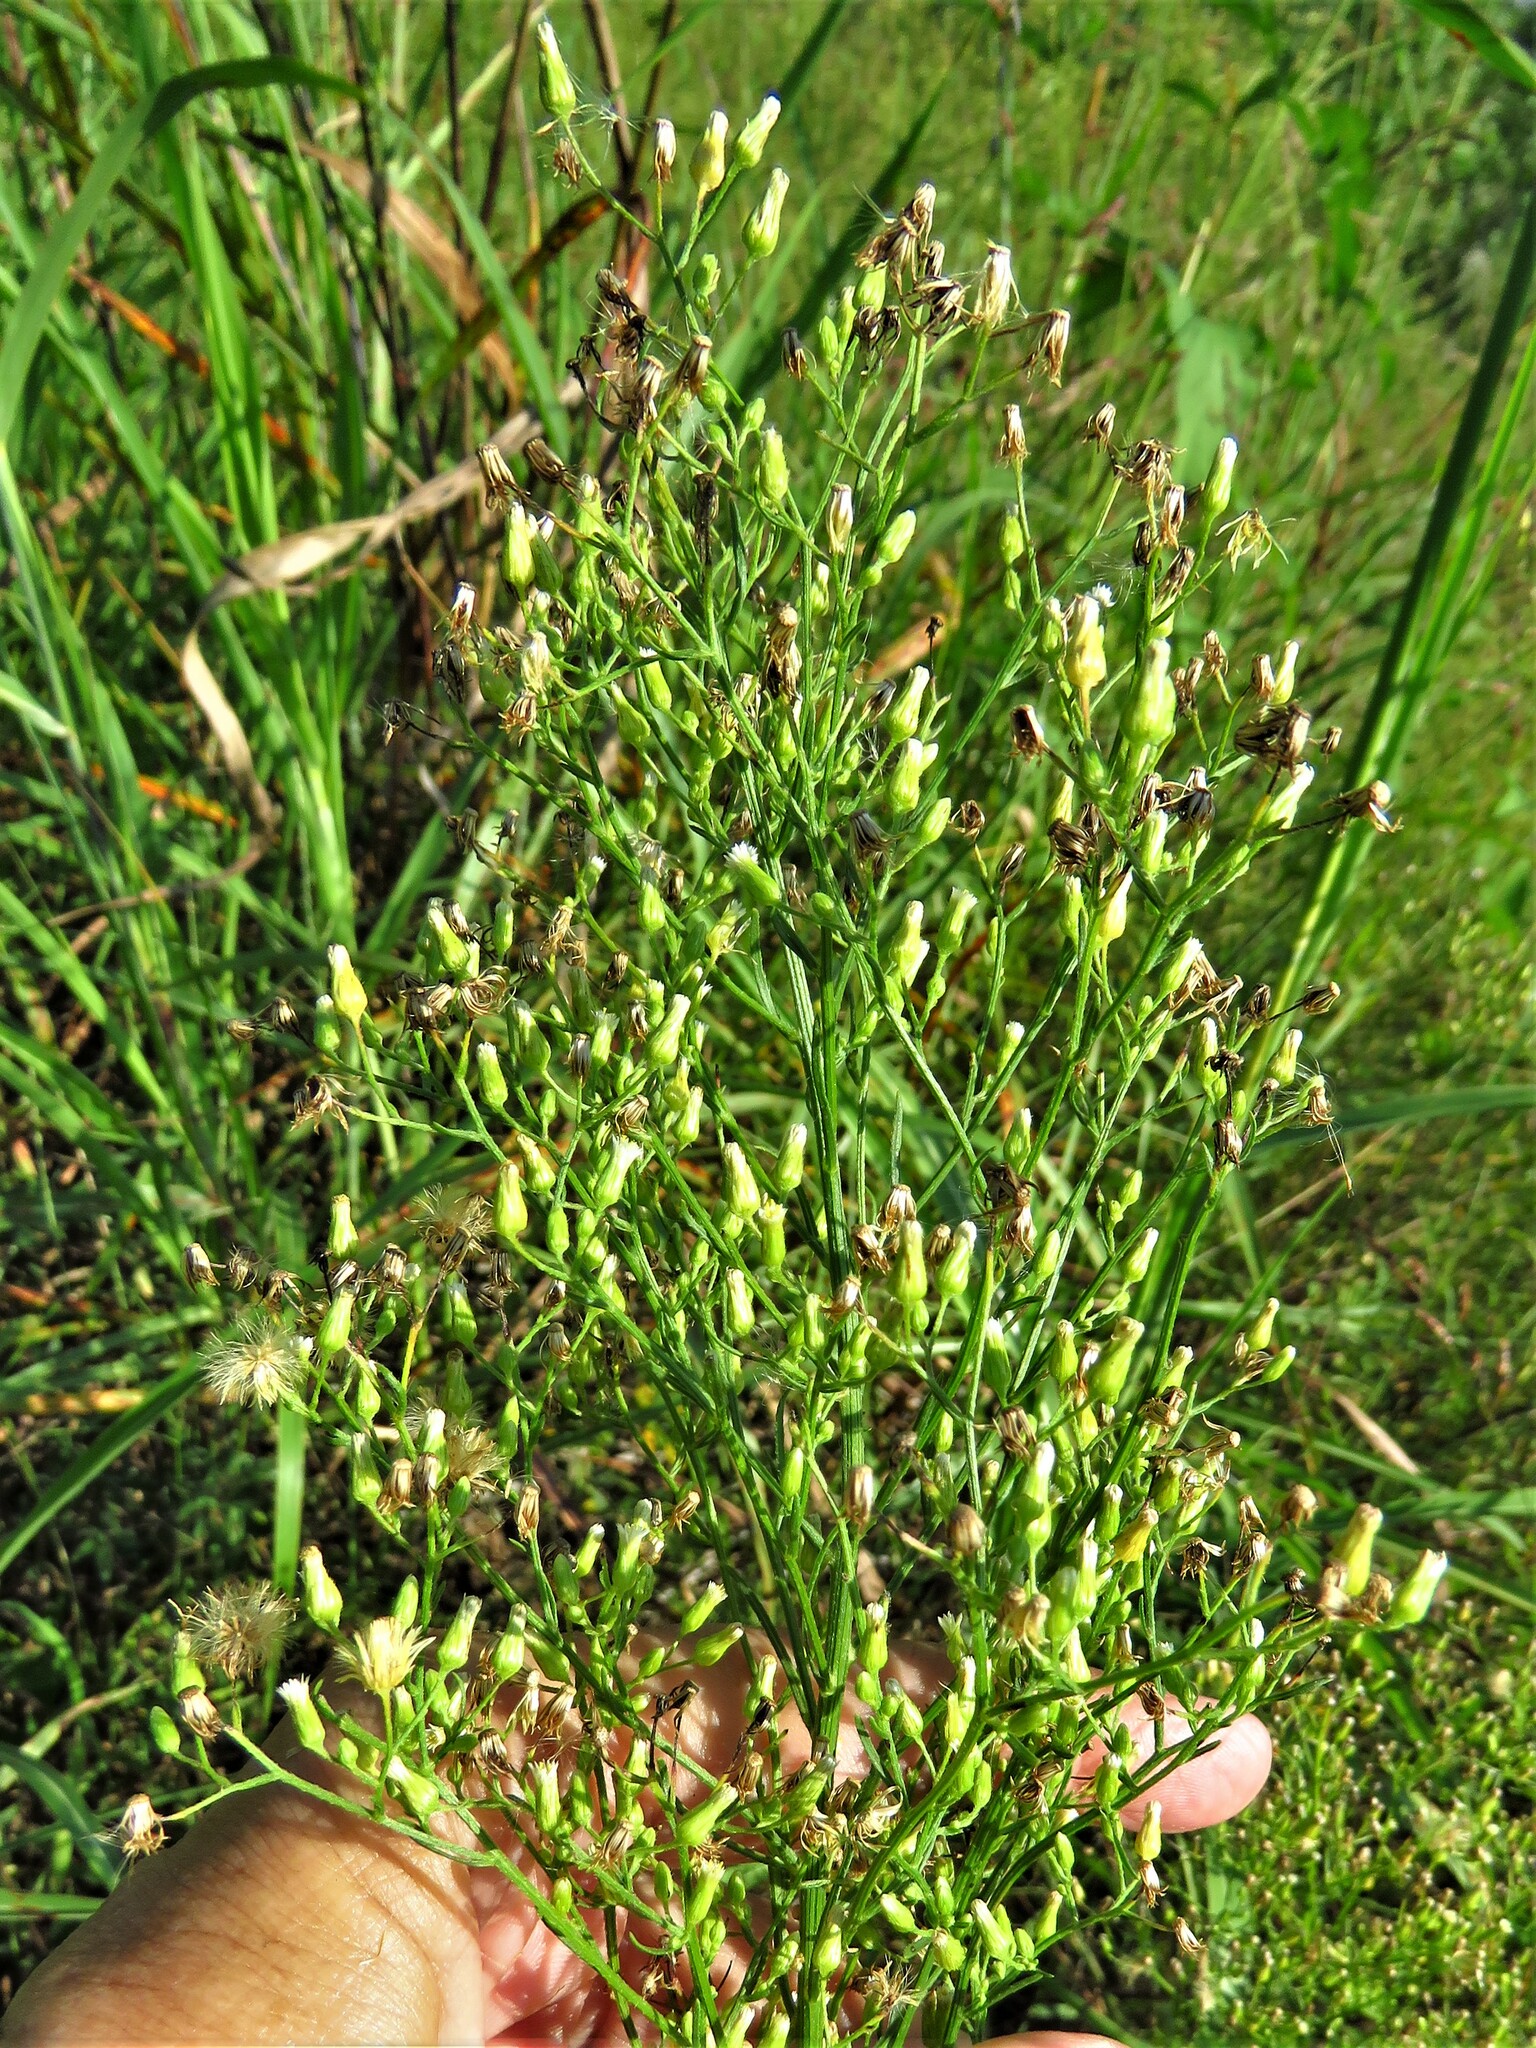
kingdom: Plantae
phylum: Tracheophyta
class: Magnoliopsida
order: Asterales
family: Asteraceae
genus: Erigeron
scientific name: Erigeron canadensis
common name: Canadian fleabane
